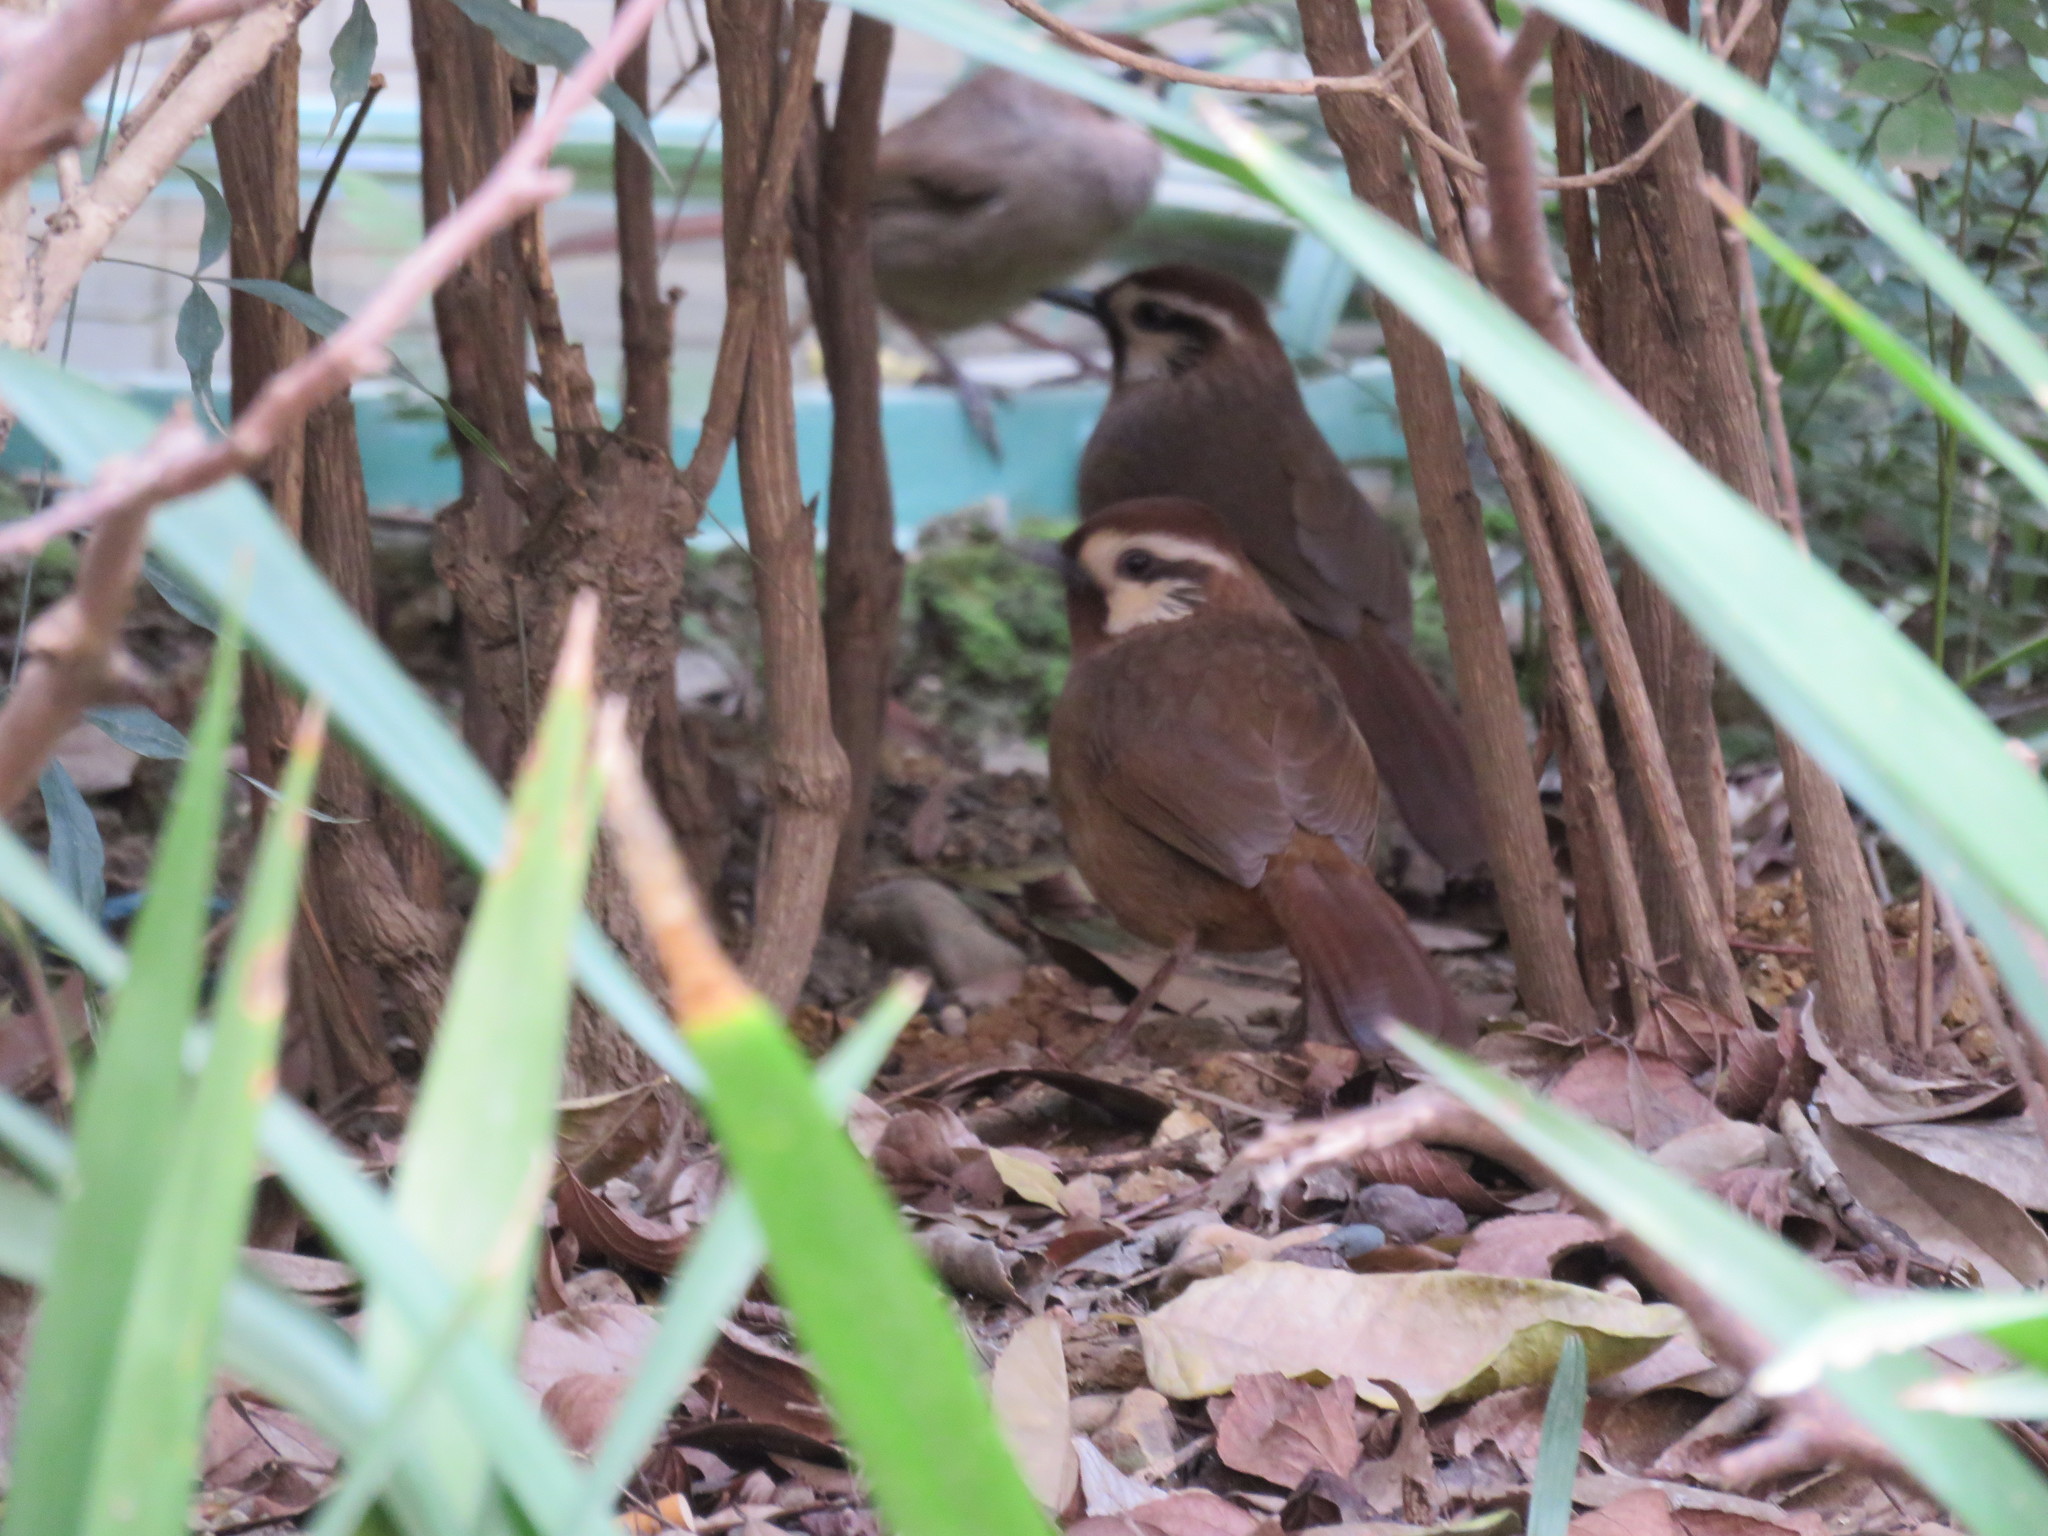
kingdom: Animalia
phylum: Chordata
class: Aves
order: Passeriformes
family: Leiothrichidae
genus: Pterorhinus
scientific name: Pterorhinus sannio
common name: White-browed laughingthrush
